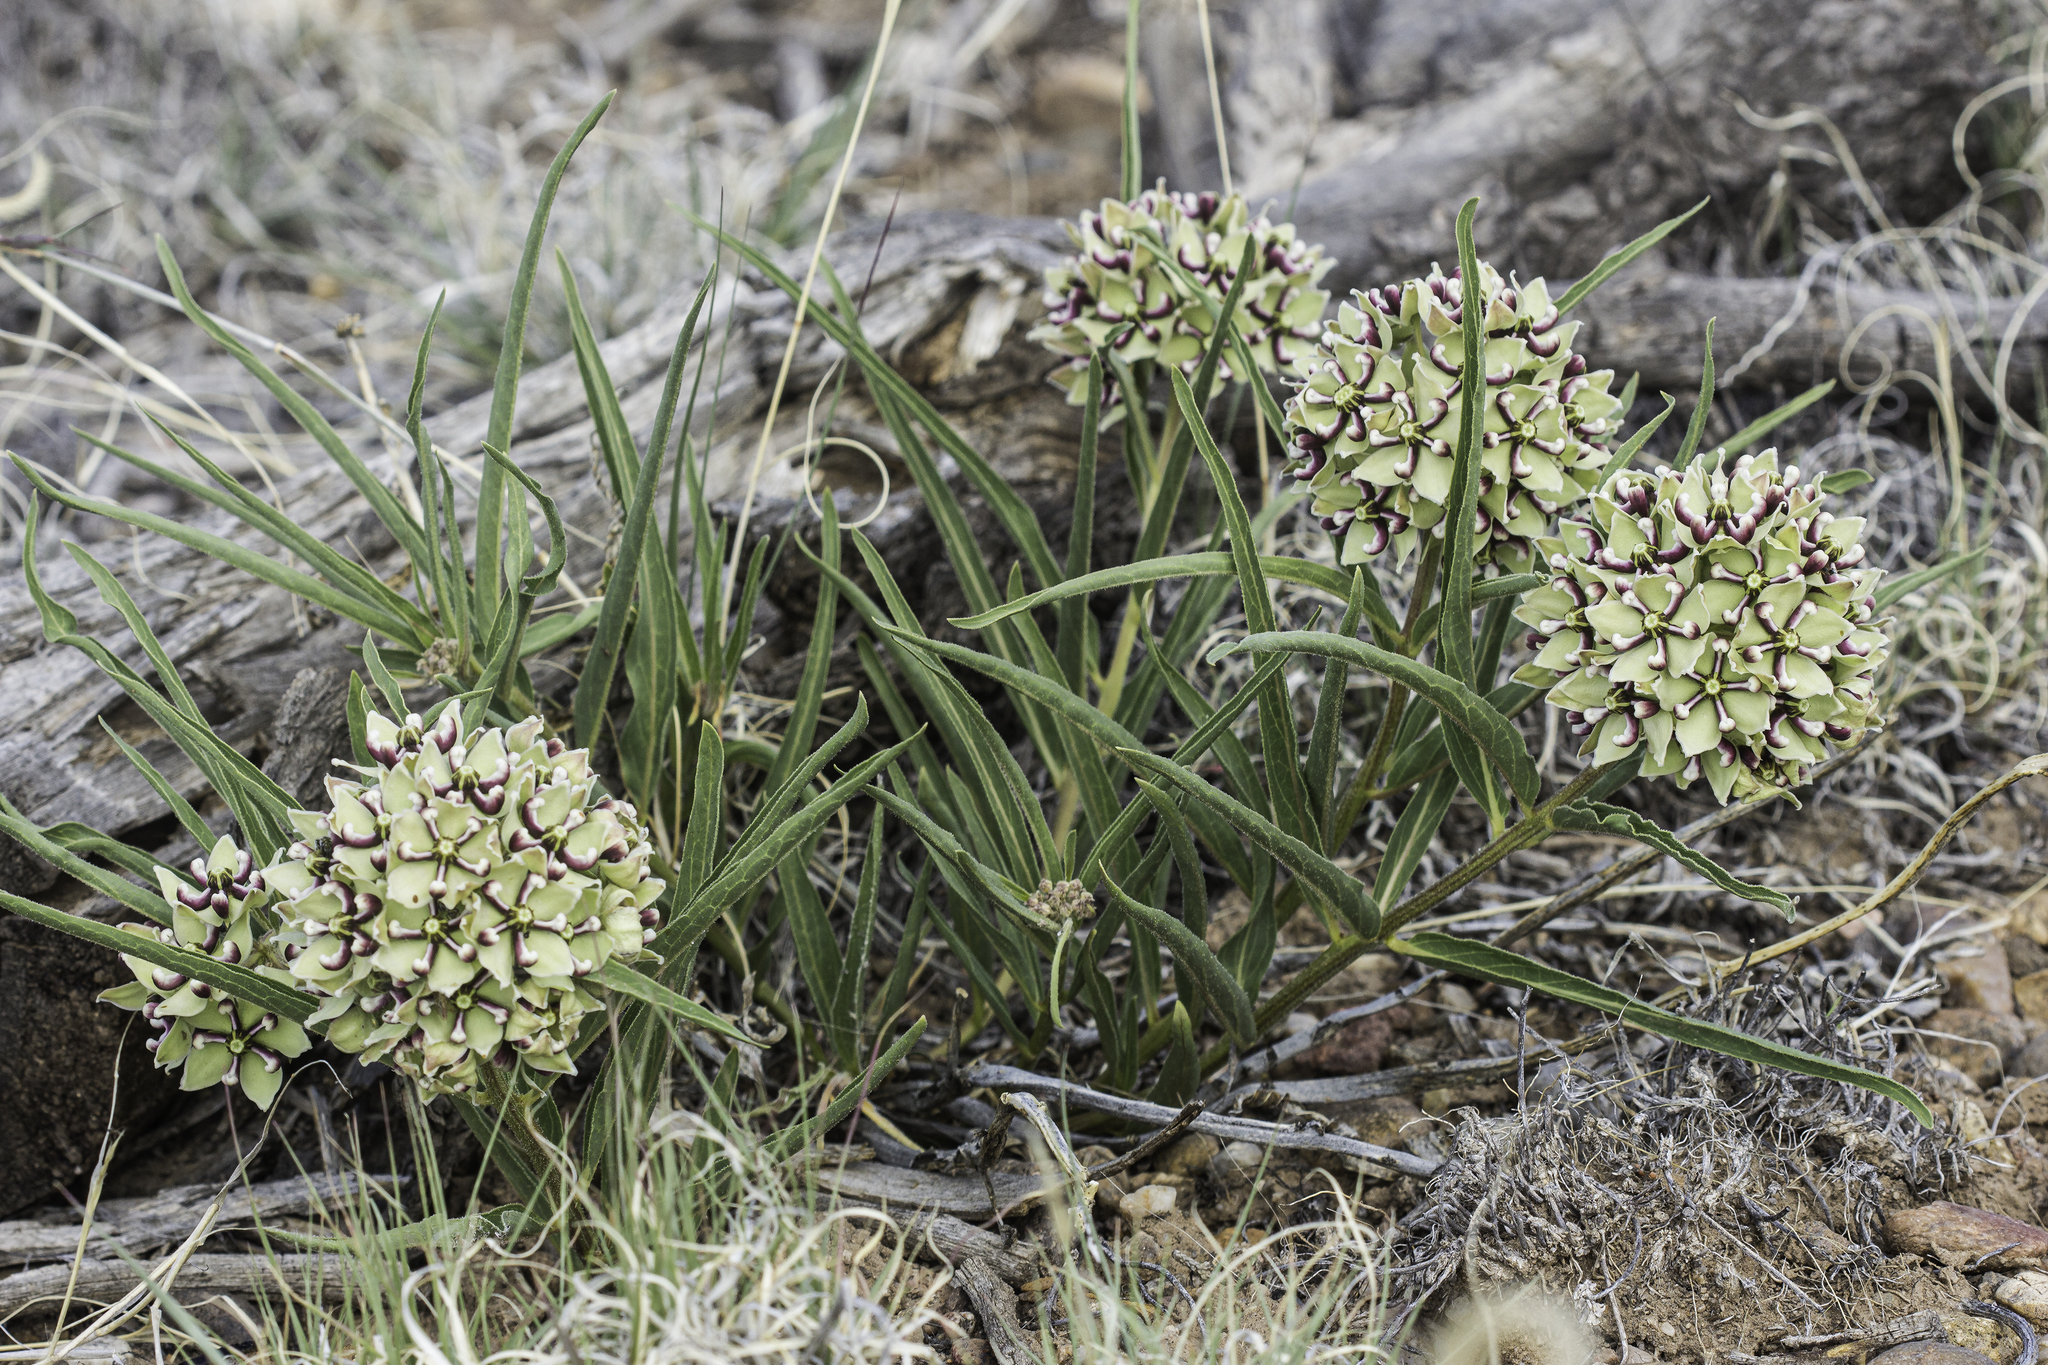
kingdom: Plantae
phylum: Tracheophyta
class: Magnoliopsida
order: Gentianales
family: Apocynaceae
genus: Asclepias
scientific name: Asclepias asperula
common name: Antelope horns
